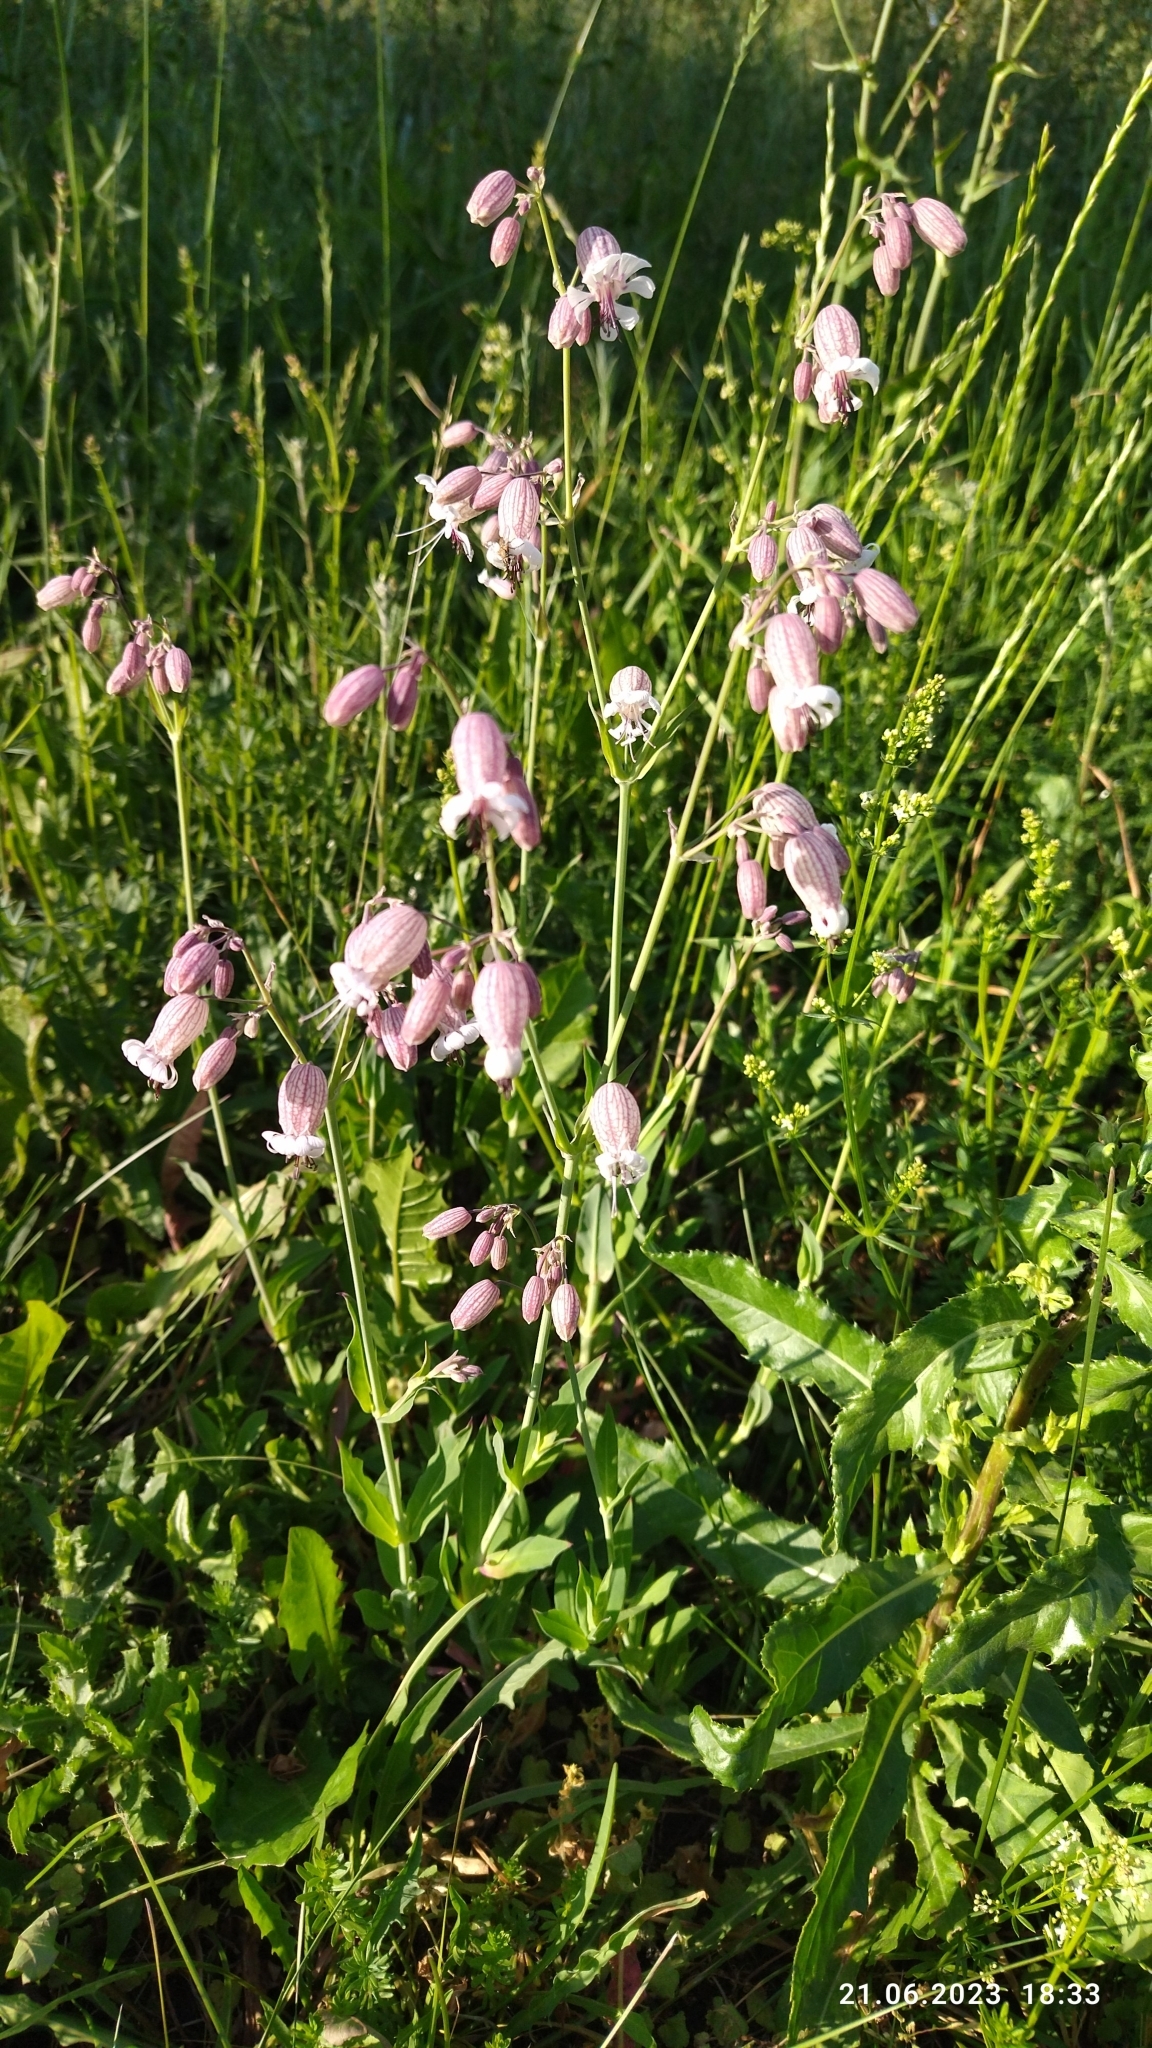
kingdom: Plantae
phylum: Tracheophyta
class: Magnoliopsida
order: Caryophyllales
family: Caryophyllaceae
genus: Silene
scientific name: Silene vulgaris
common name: Bladder campion
